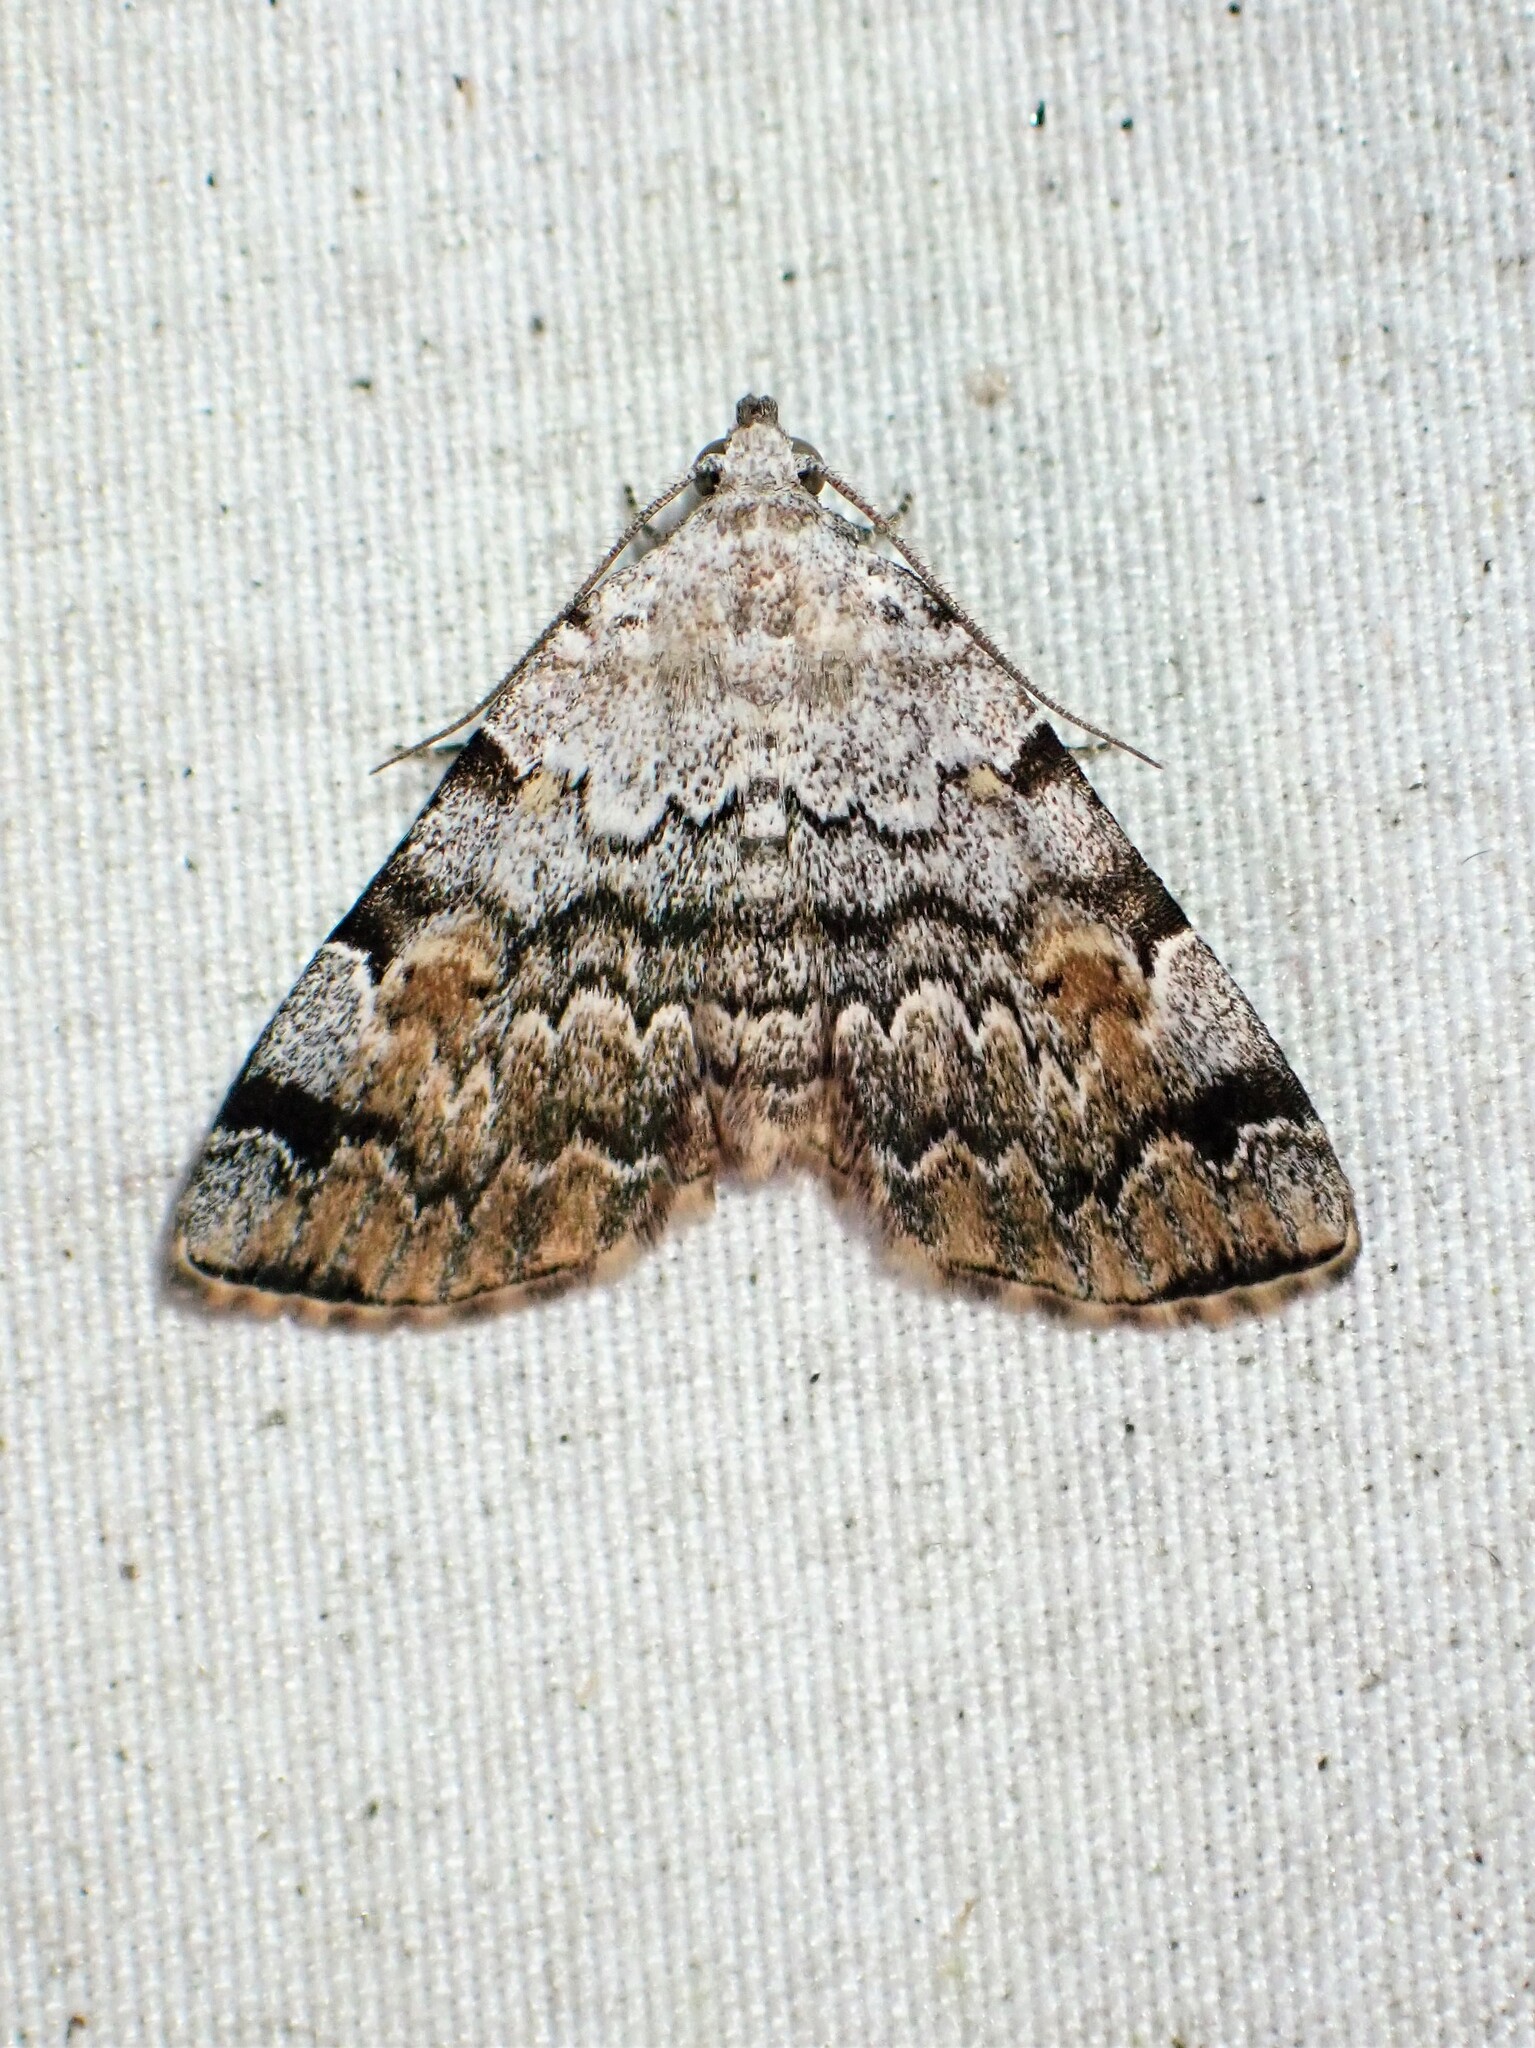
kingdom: Animalia
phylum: Arthropoda
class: Insecta
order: Lepidoptera
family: Erebidae
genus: Idia
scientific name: Idia americalis
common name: American idia moth
